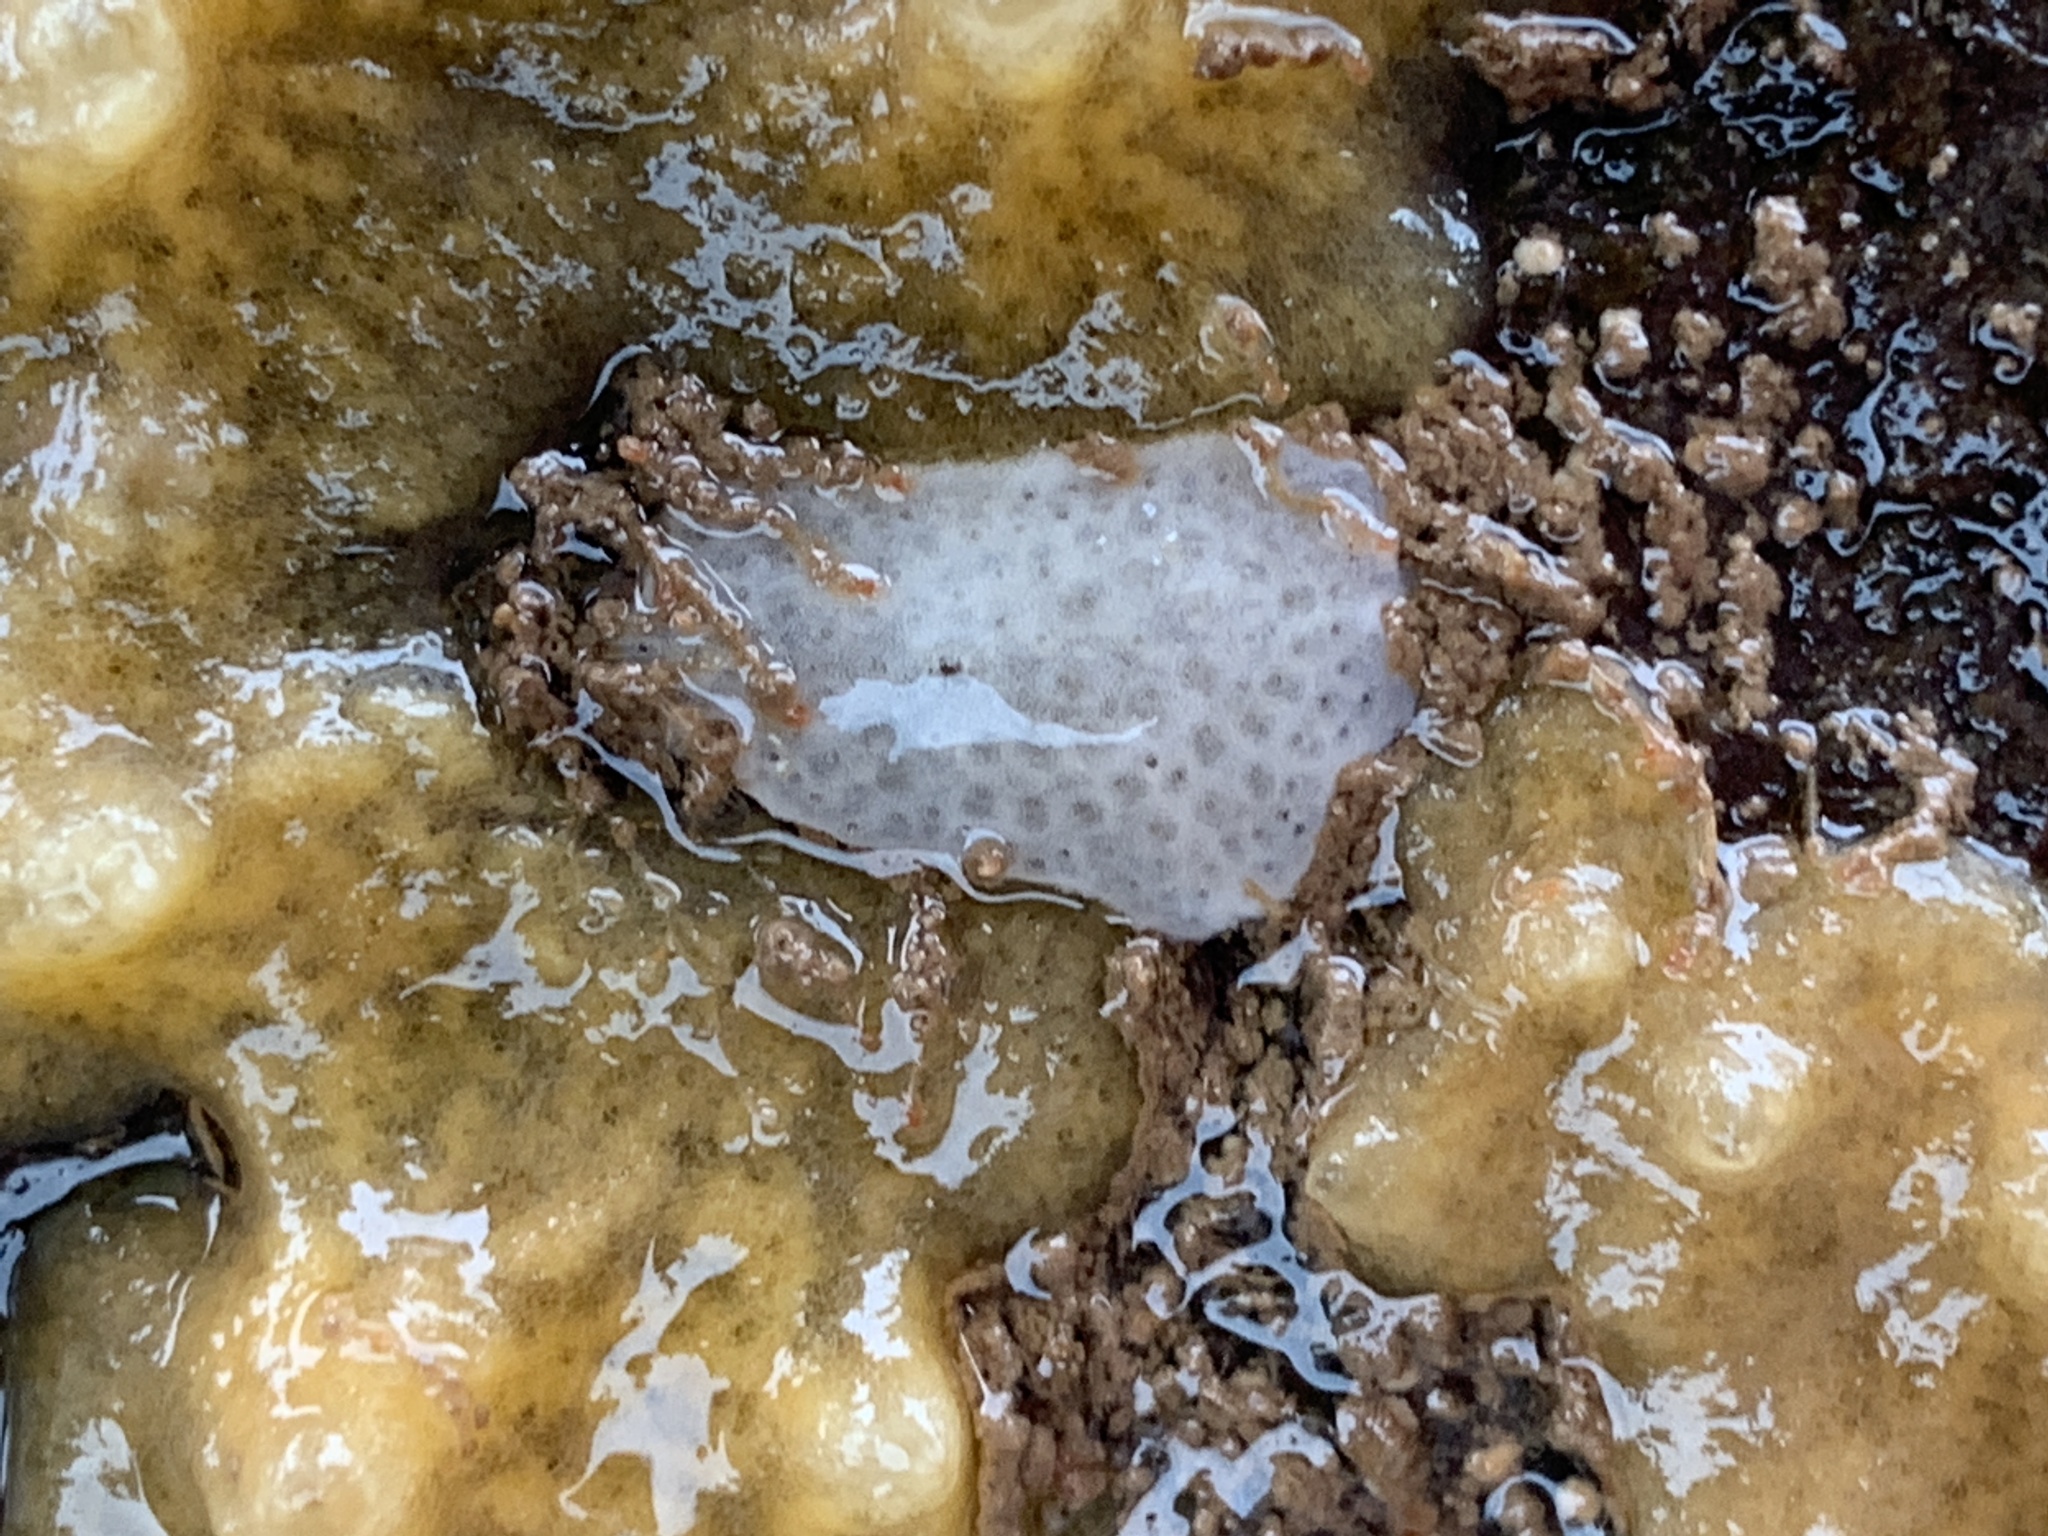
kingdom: Animalia
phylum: Chordata
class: Ascidiacea
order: Aplousobranchia
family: Didemnidae
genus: Didemnum
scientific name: Didemnum albidum
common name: Northern white crust
